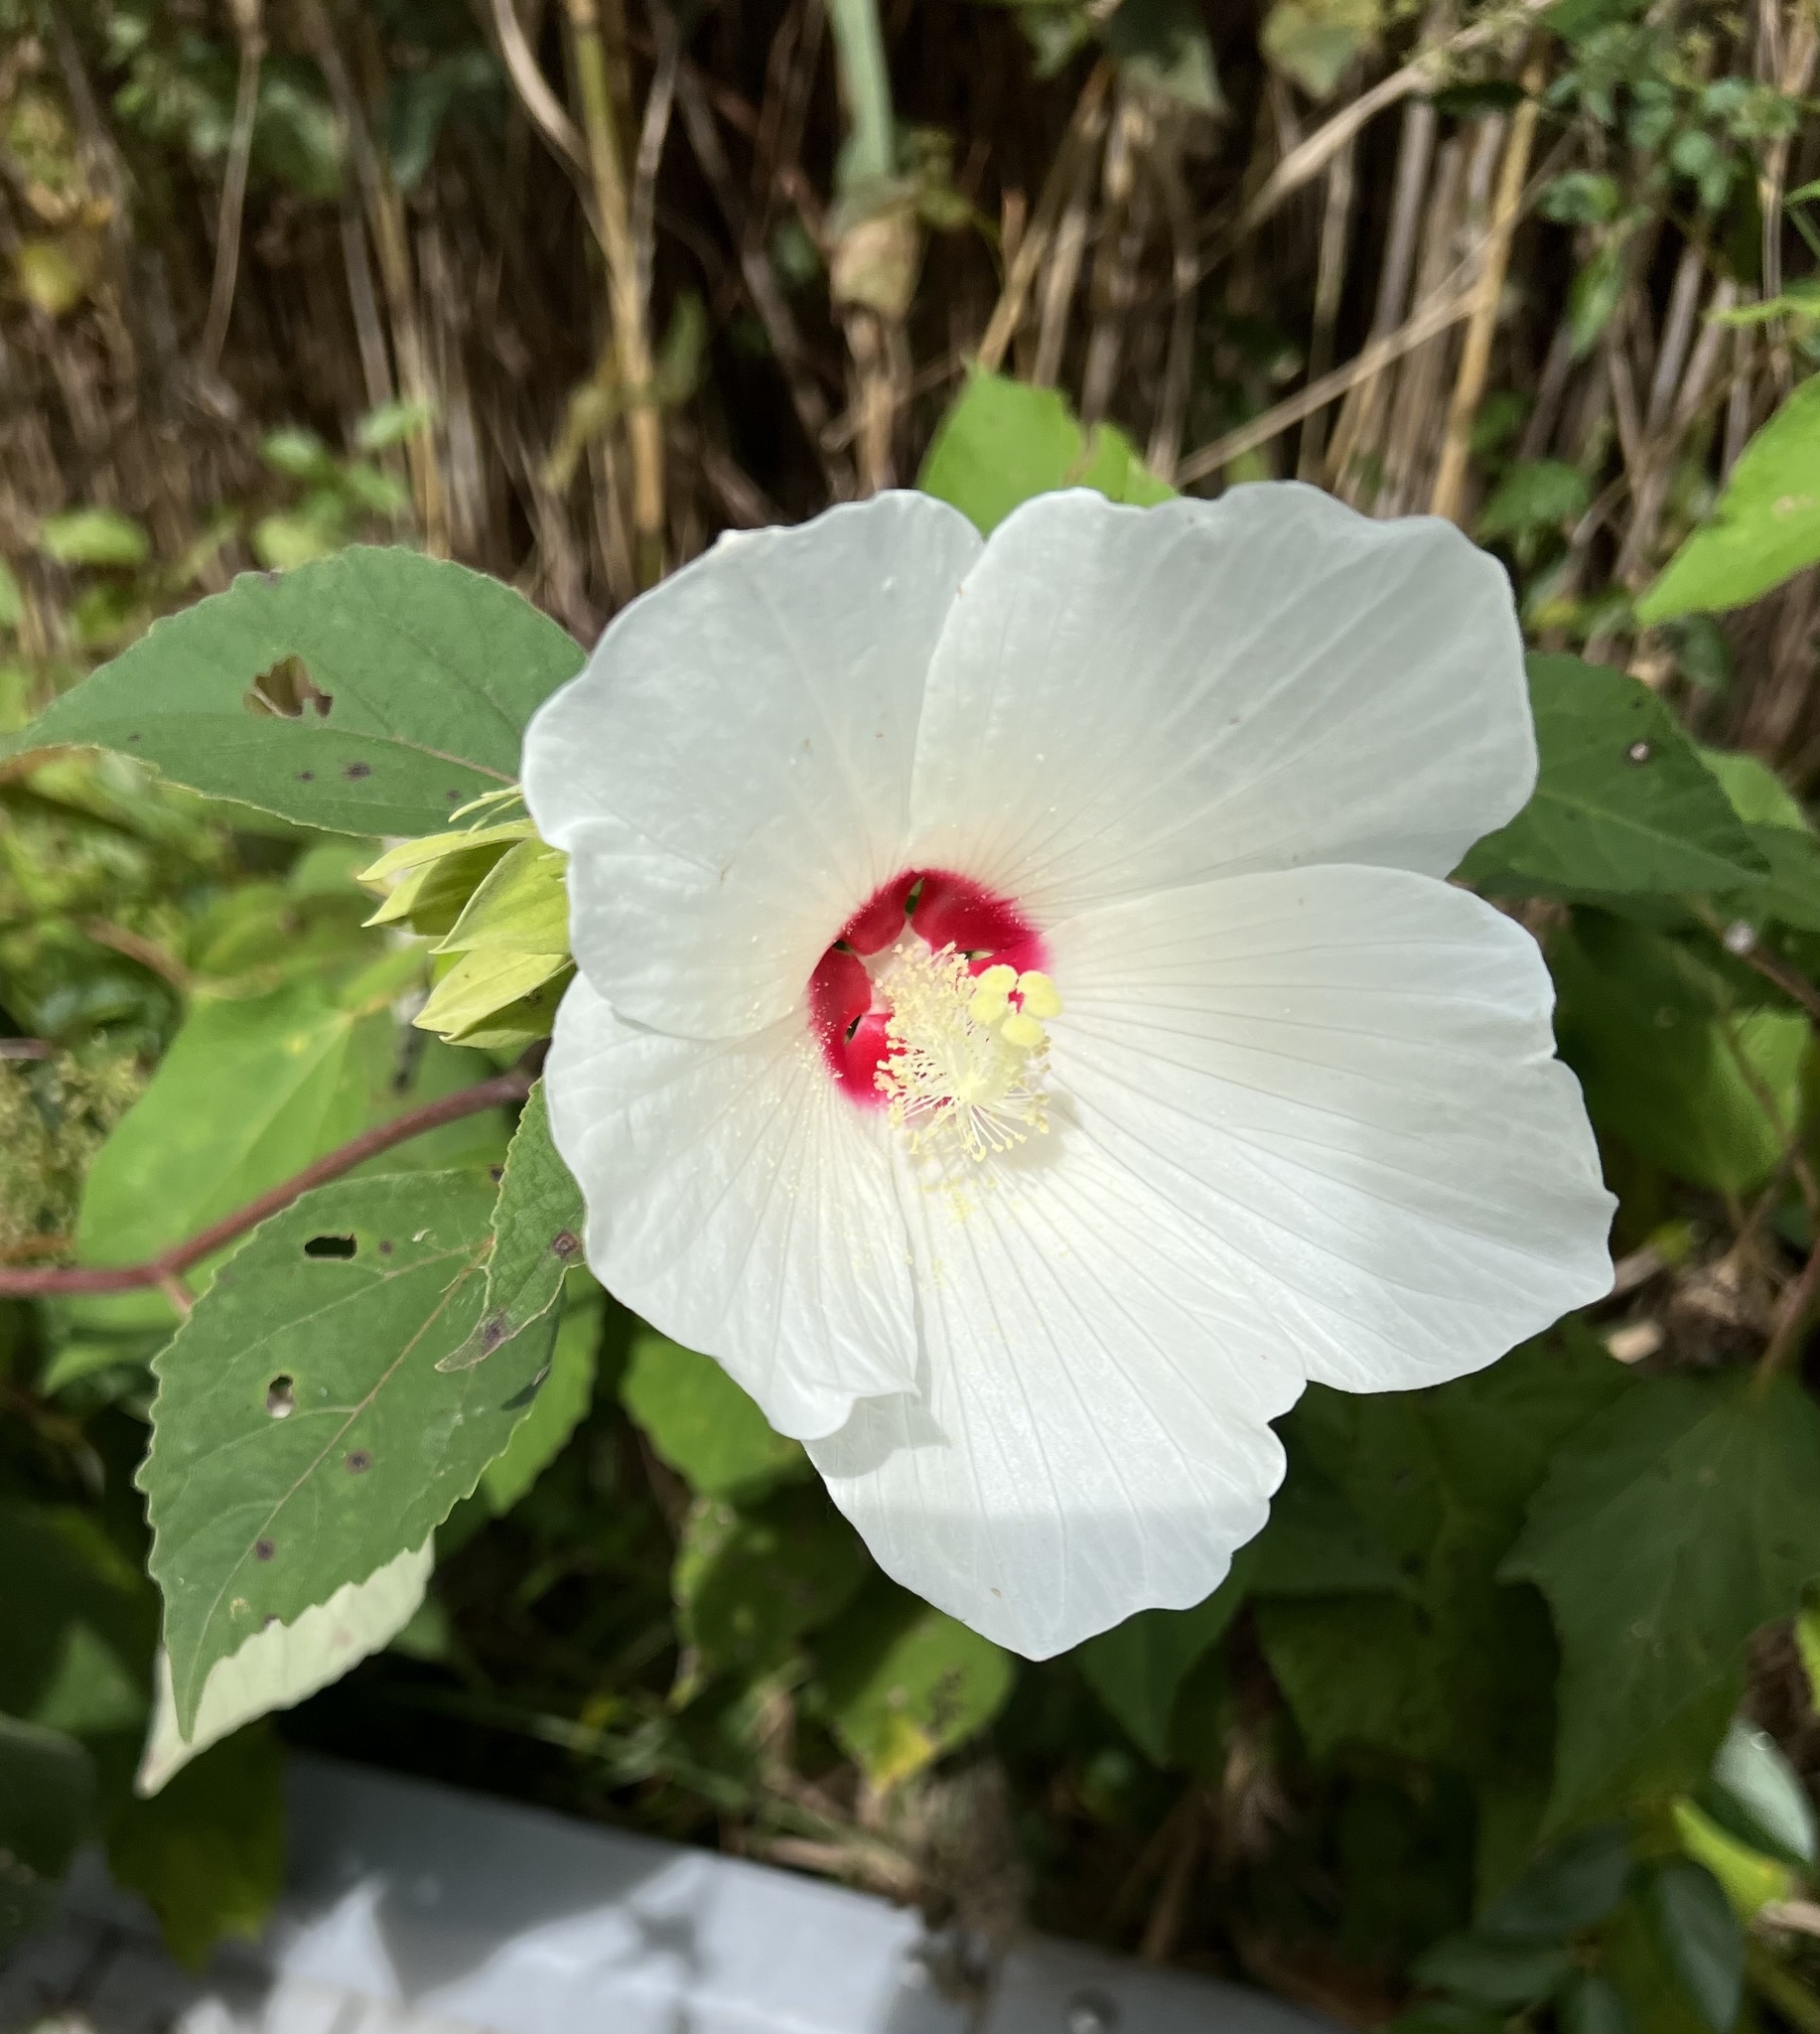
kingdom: Plantae
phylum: Tracheophyta
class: Magnoliopsida
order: Malvales
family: Malvaceae
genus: Hibiscus
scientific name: Hibiscus moscheutos
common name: Common rose-mallow
